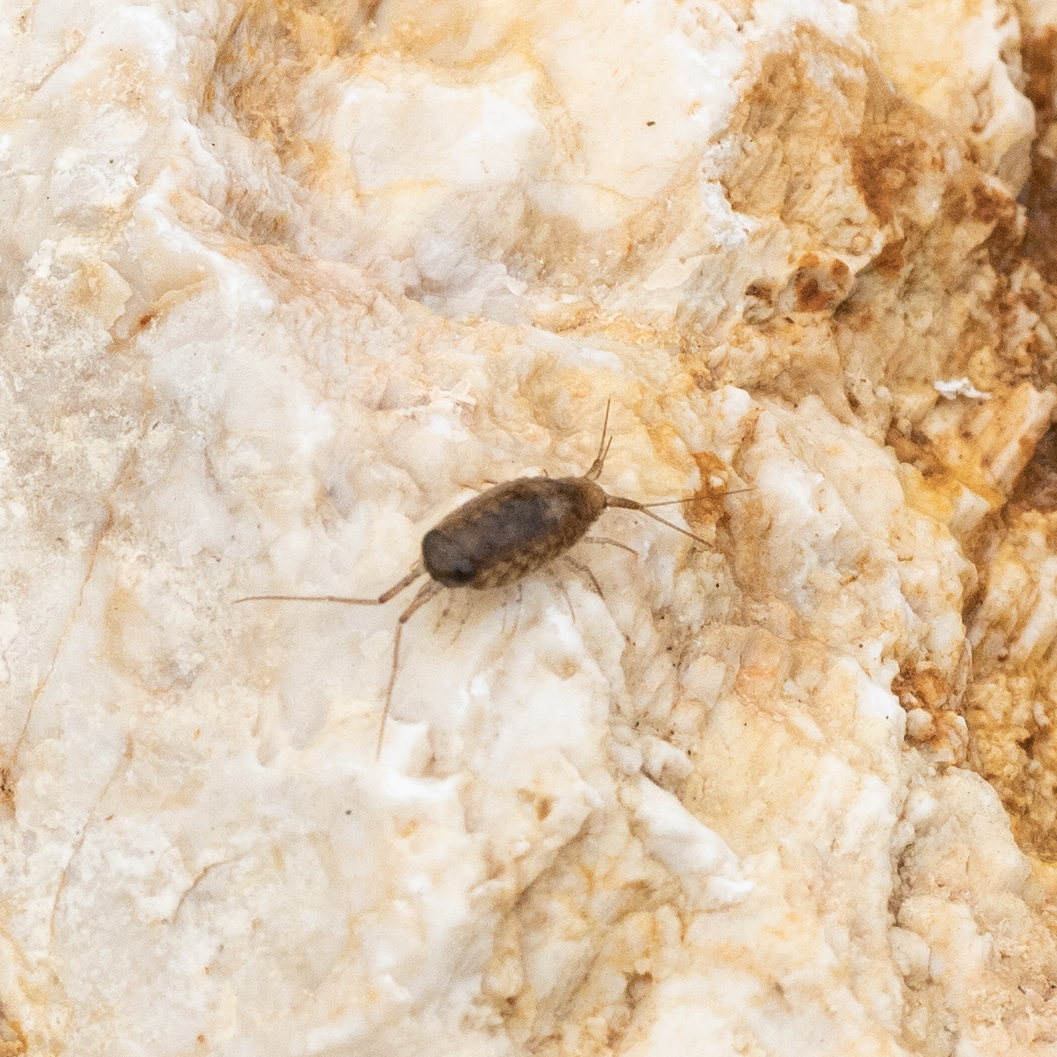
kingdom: Animalia
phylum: Arthropoda
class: Malacostraca
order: Isopoda
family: Ligiidae
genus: Ligia
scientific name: Ligia italica
